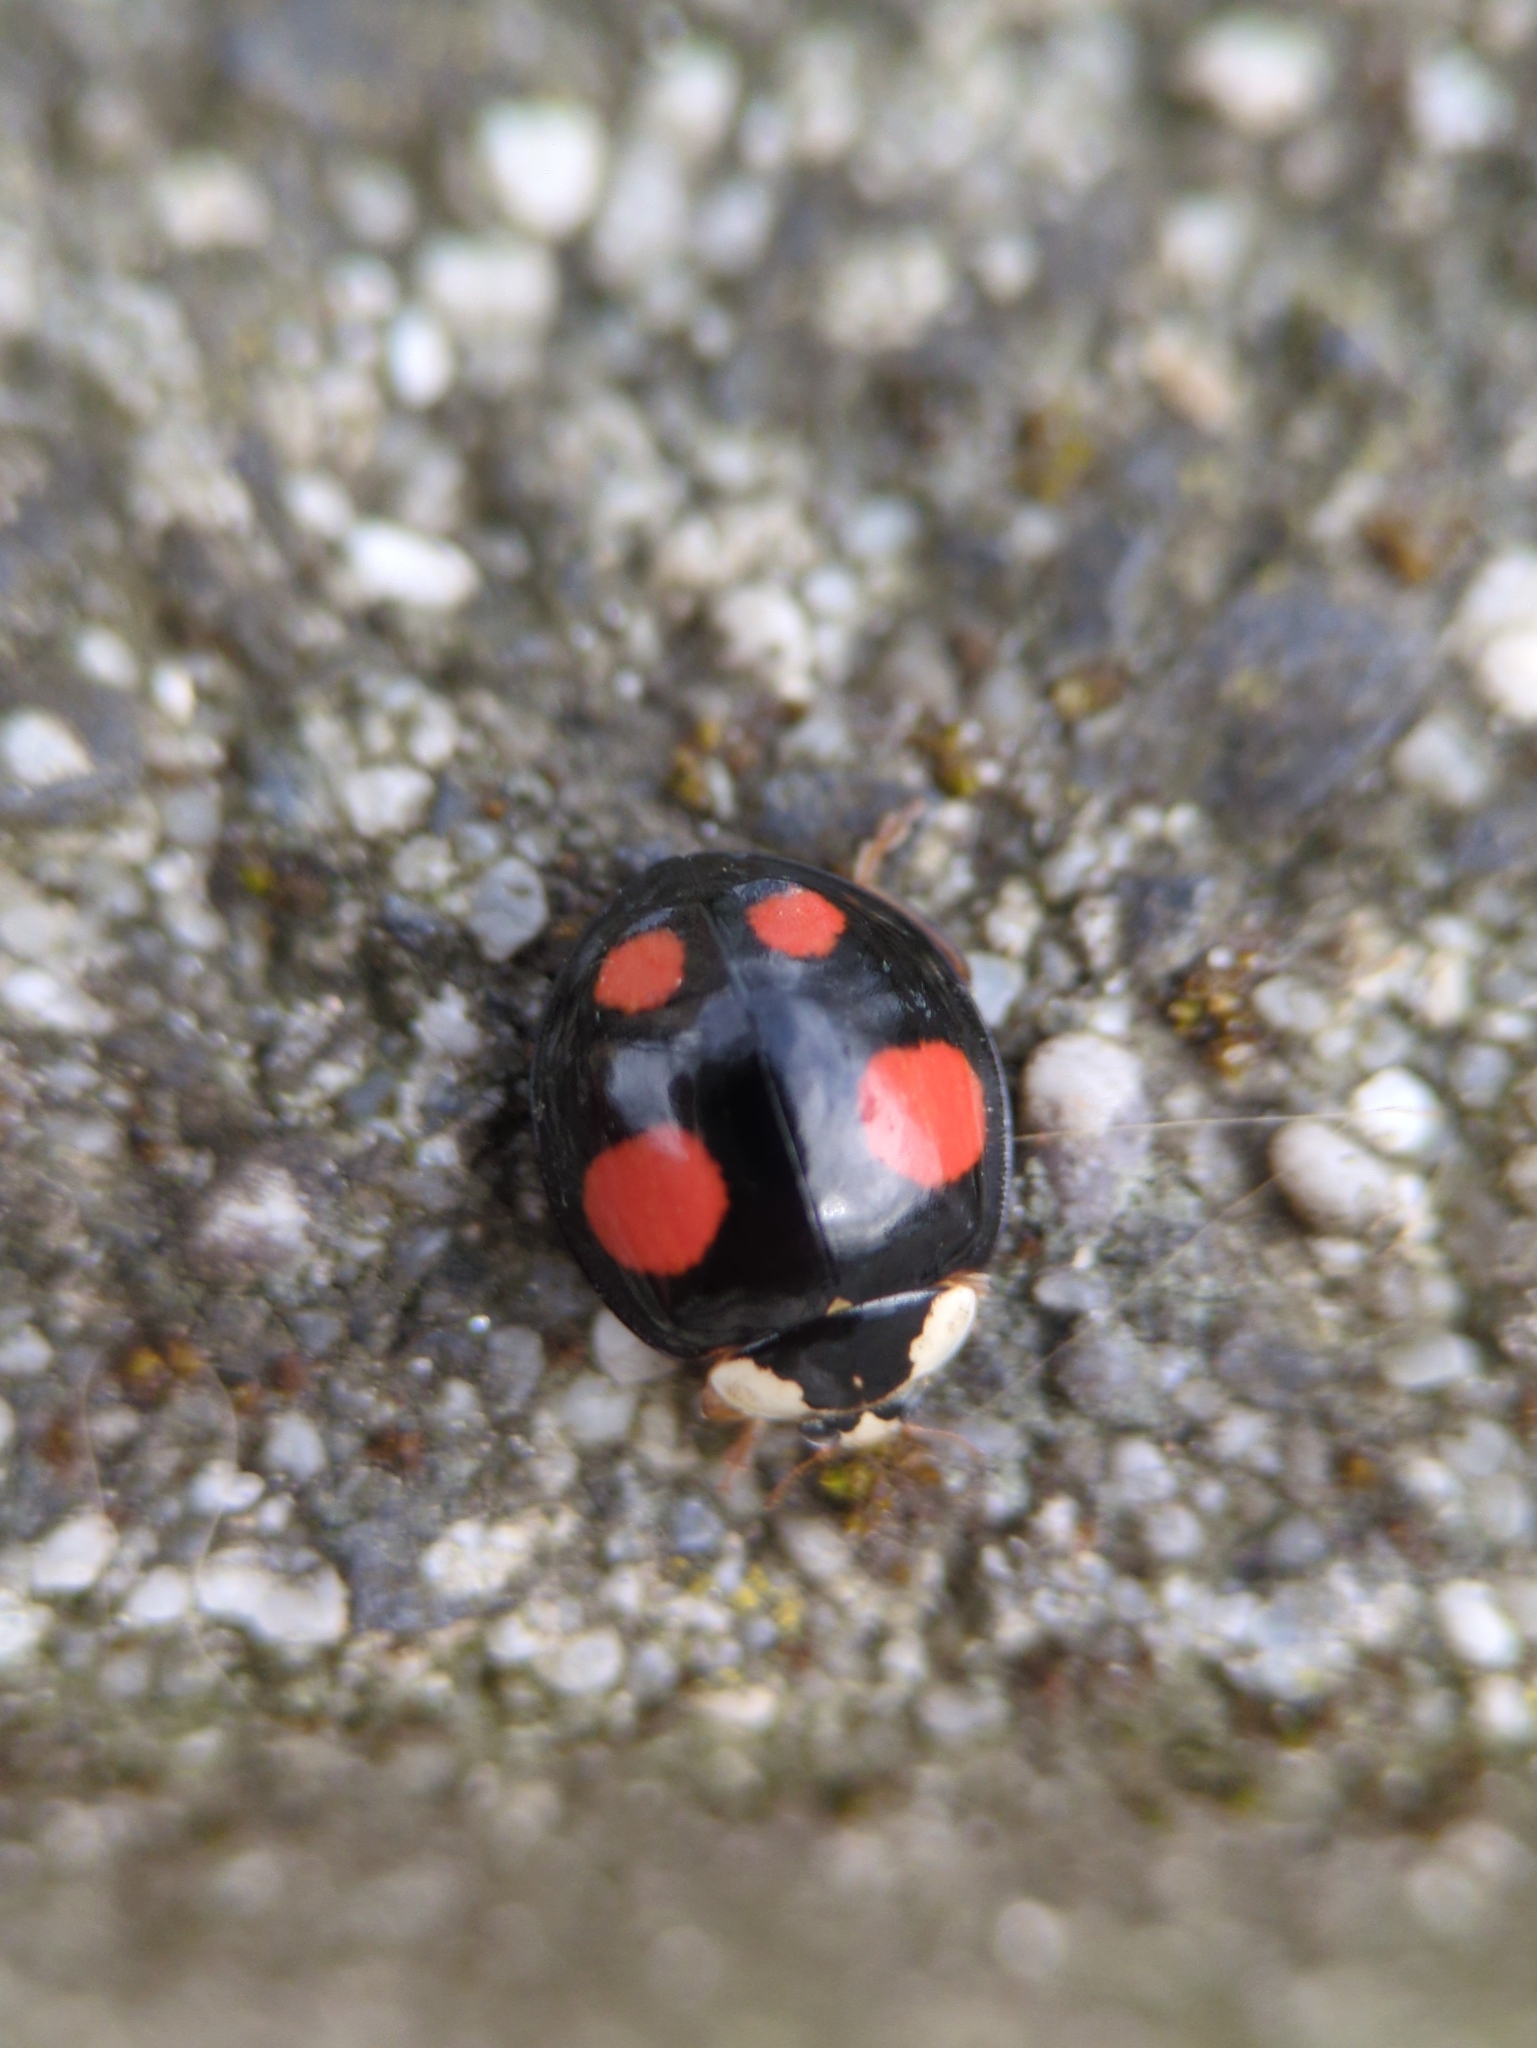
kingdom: Animalia
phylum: Arthropoda
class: Insecta
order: Coleoptera
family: Coccinellidae
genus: Harmonia
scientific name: Harmonia axyridis
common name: Harlequin ladybird
